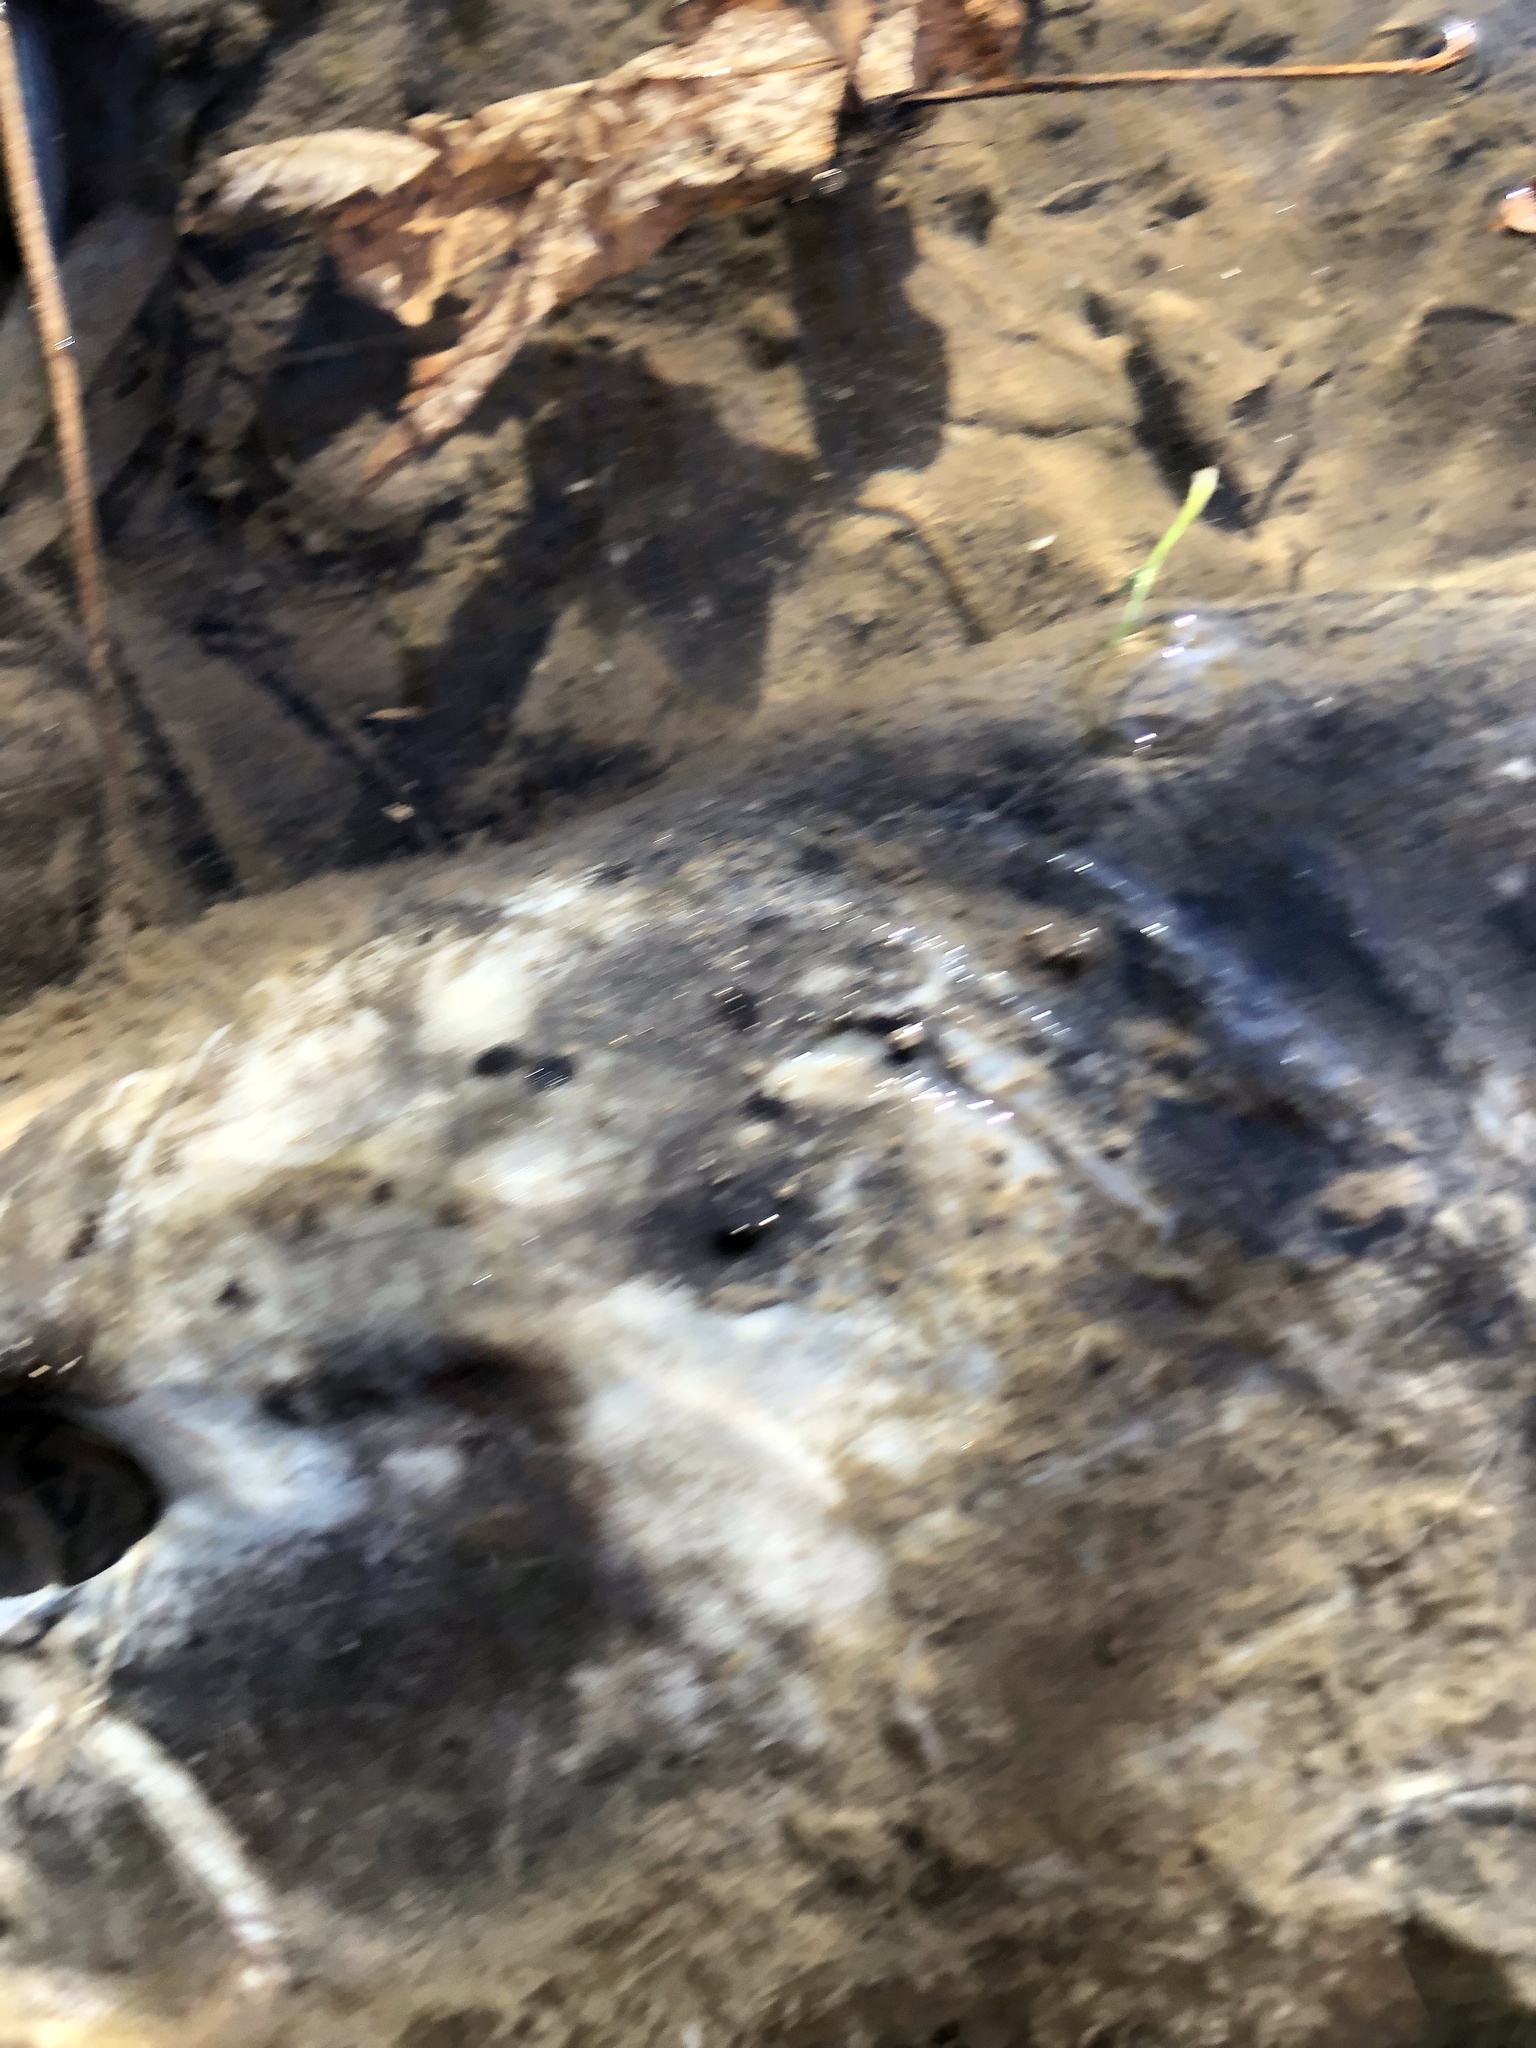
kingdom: Animalia
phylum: Chordata
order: Salmoniformes
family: Salmonidae
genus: Oncorhynchus
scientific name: Oncorhynchus tshawytscha
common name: Chinook salmon
